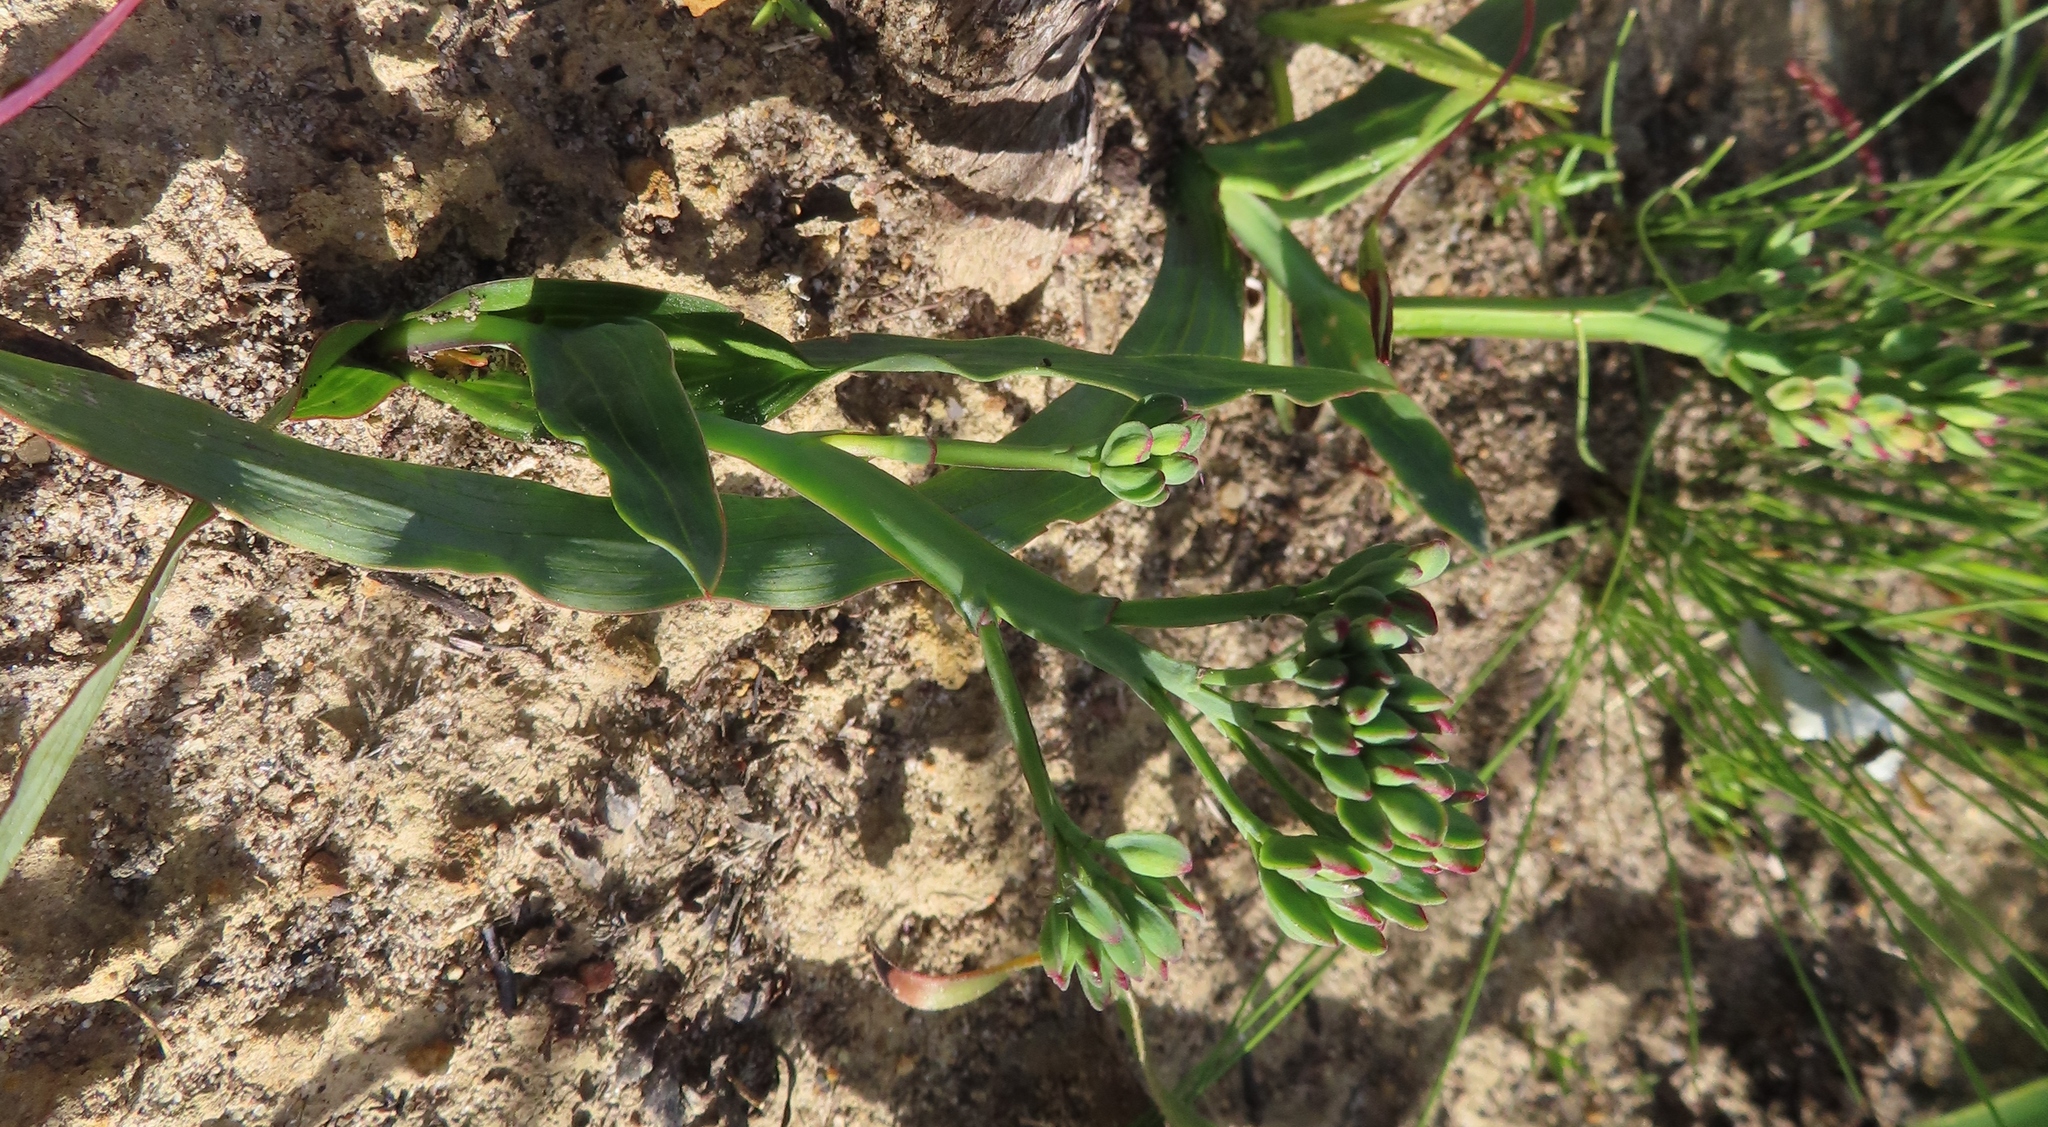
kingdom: Plantae
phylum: Tracheophyta
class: Liliopsida
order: Asparagales
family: Iridaceae
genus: Codonorhiza
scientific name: Codonorhiza corymbosa
